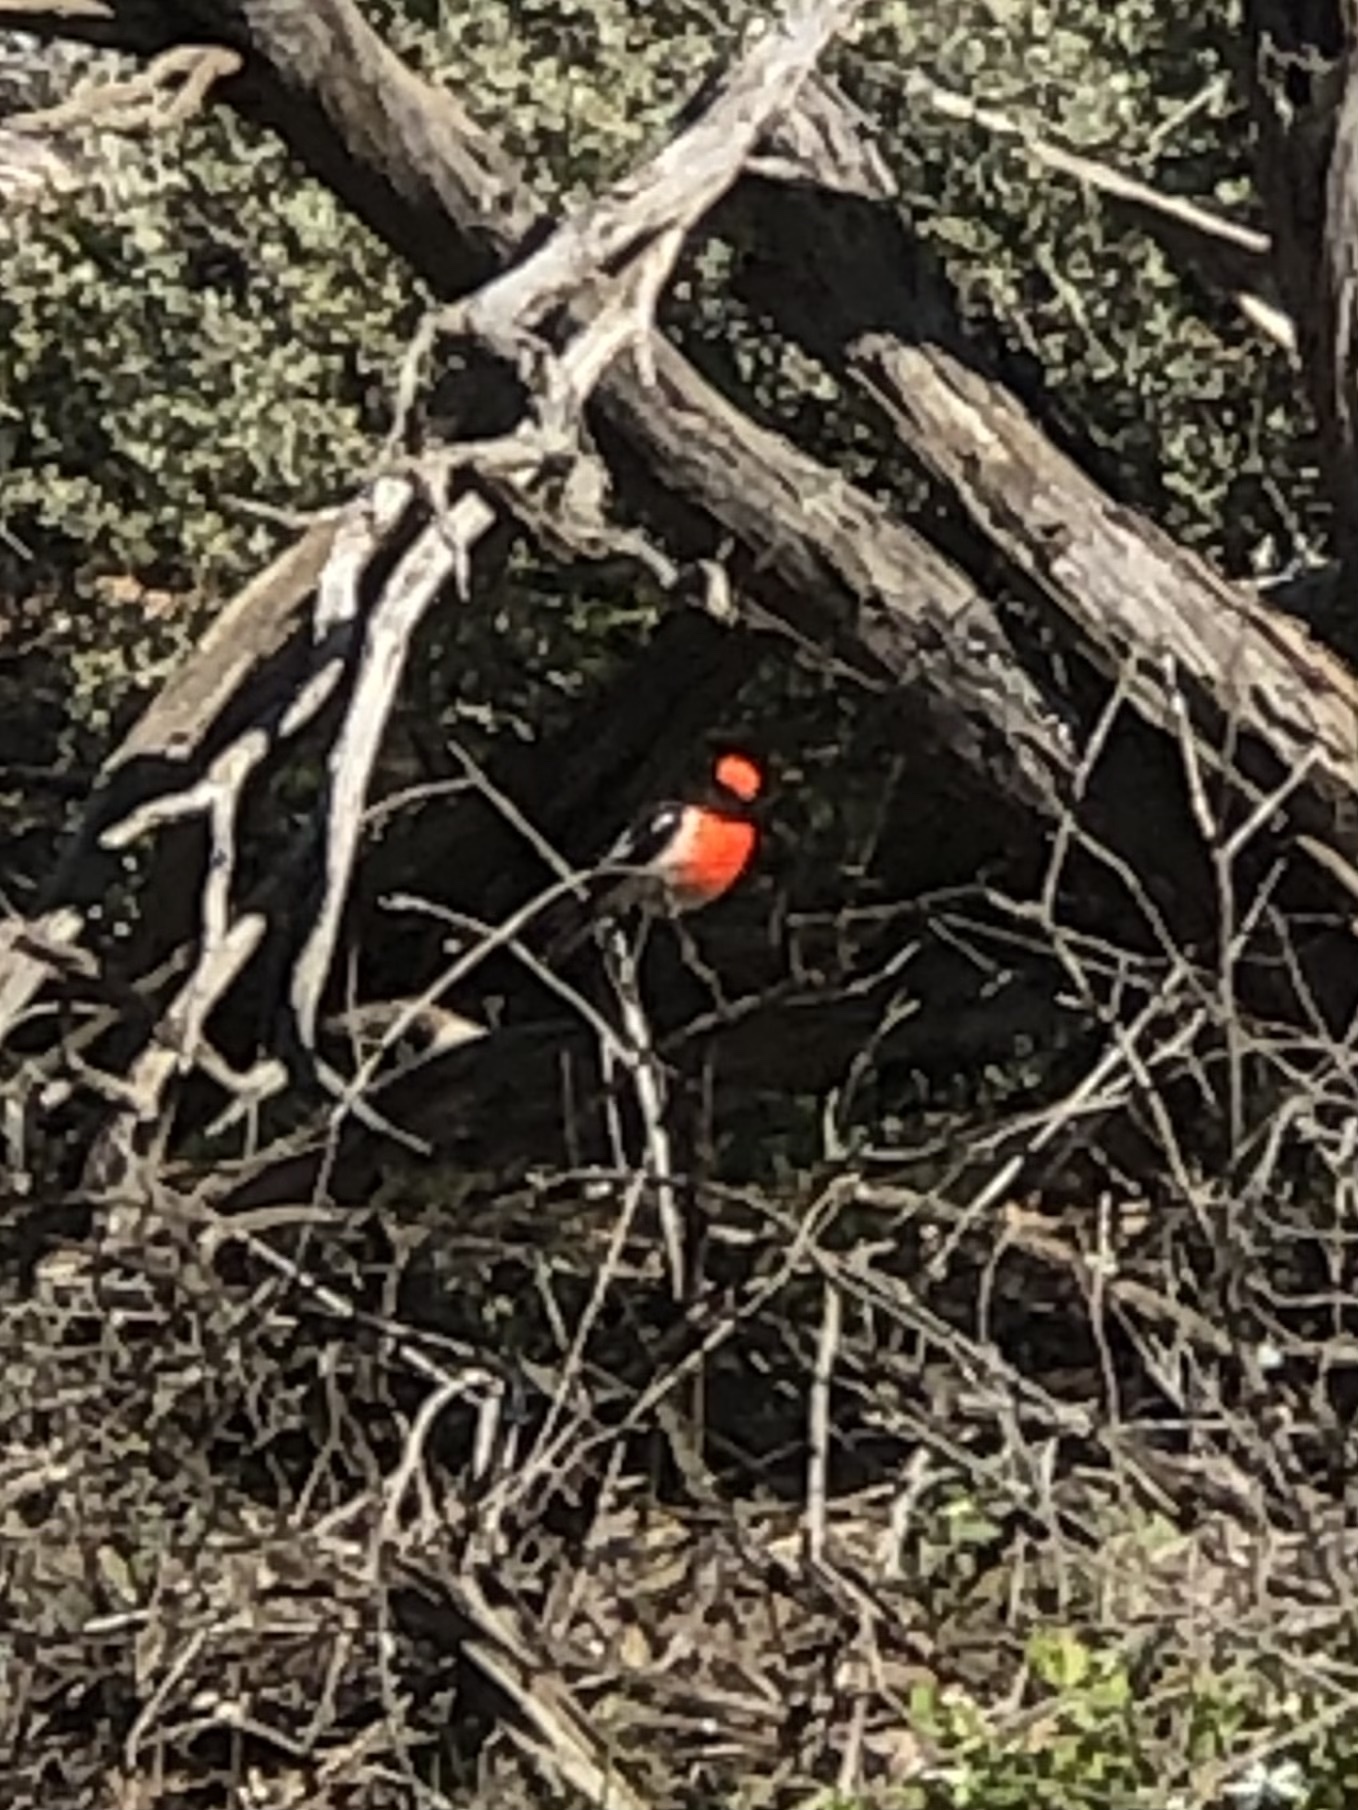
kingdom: Animalia
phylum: Chordata
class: Aves
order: Passeriformes
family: Petroicidae
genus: Petroica
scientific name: Petroica goodenovii
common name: Red-capped robin
